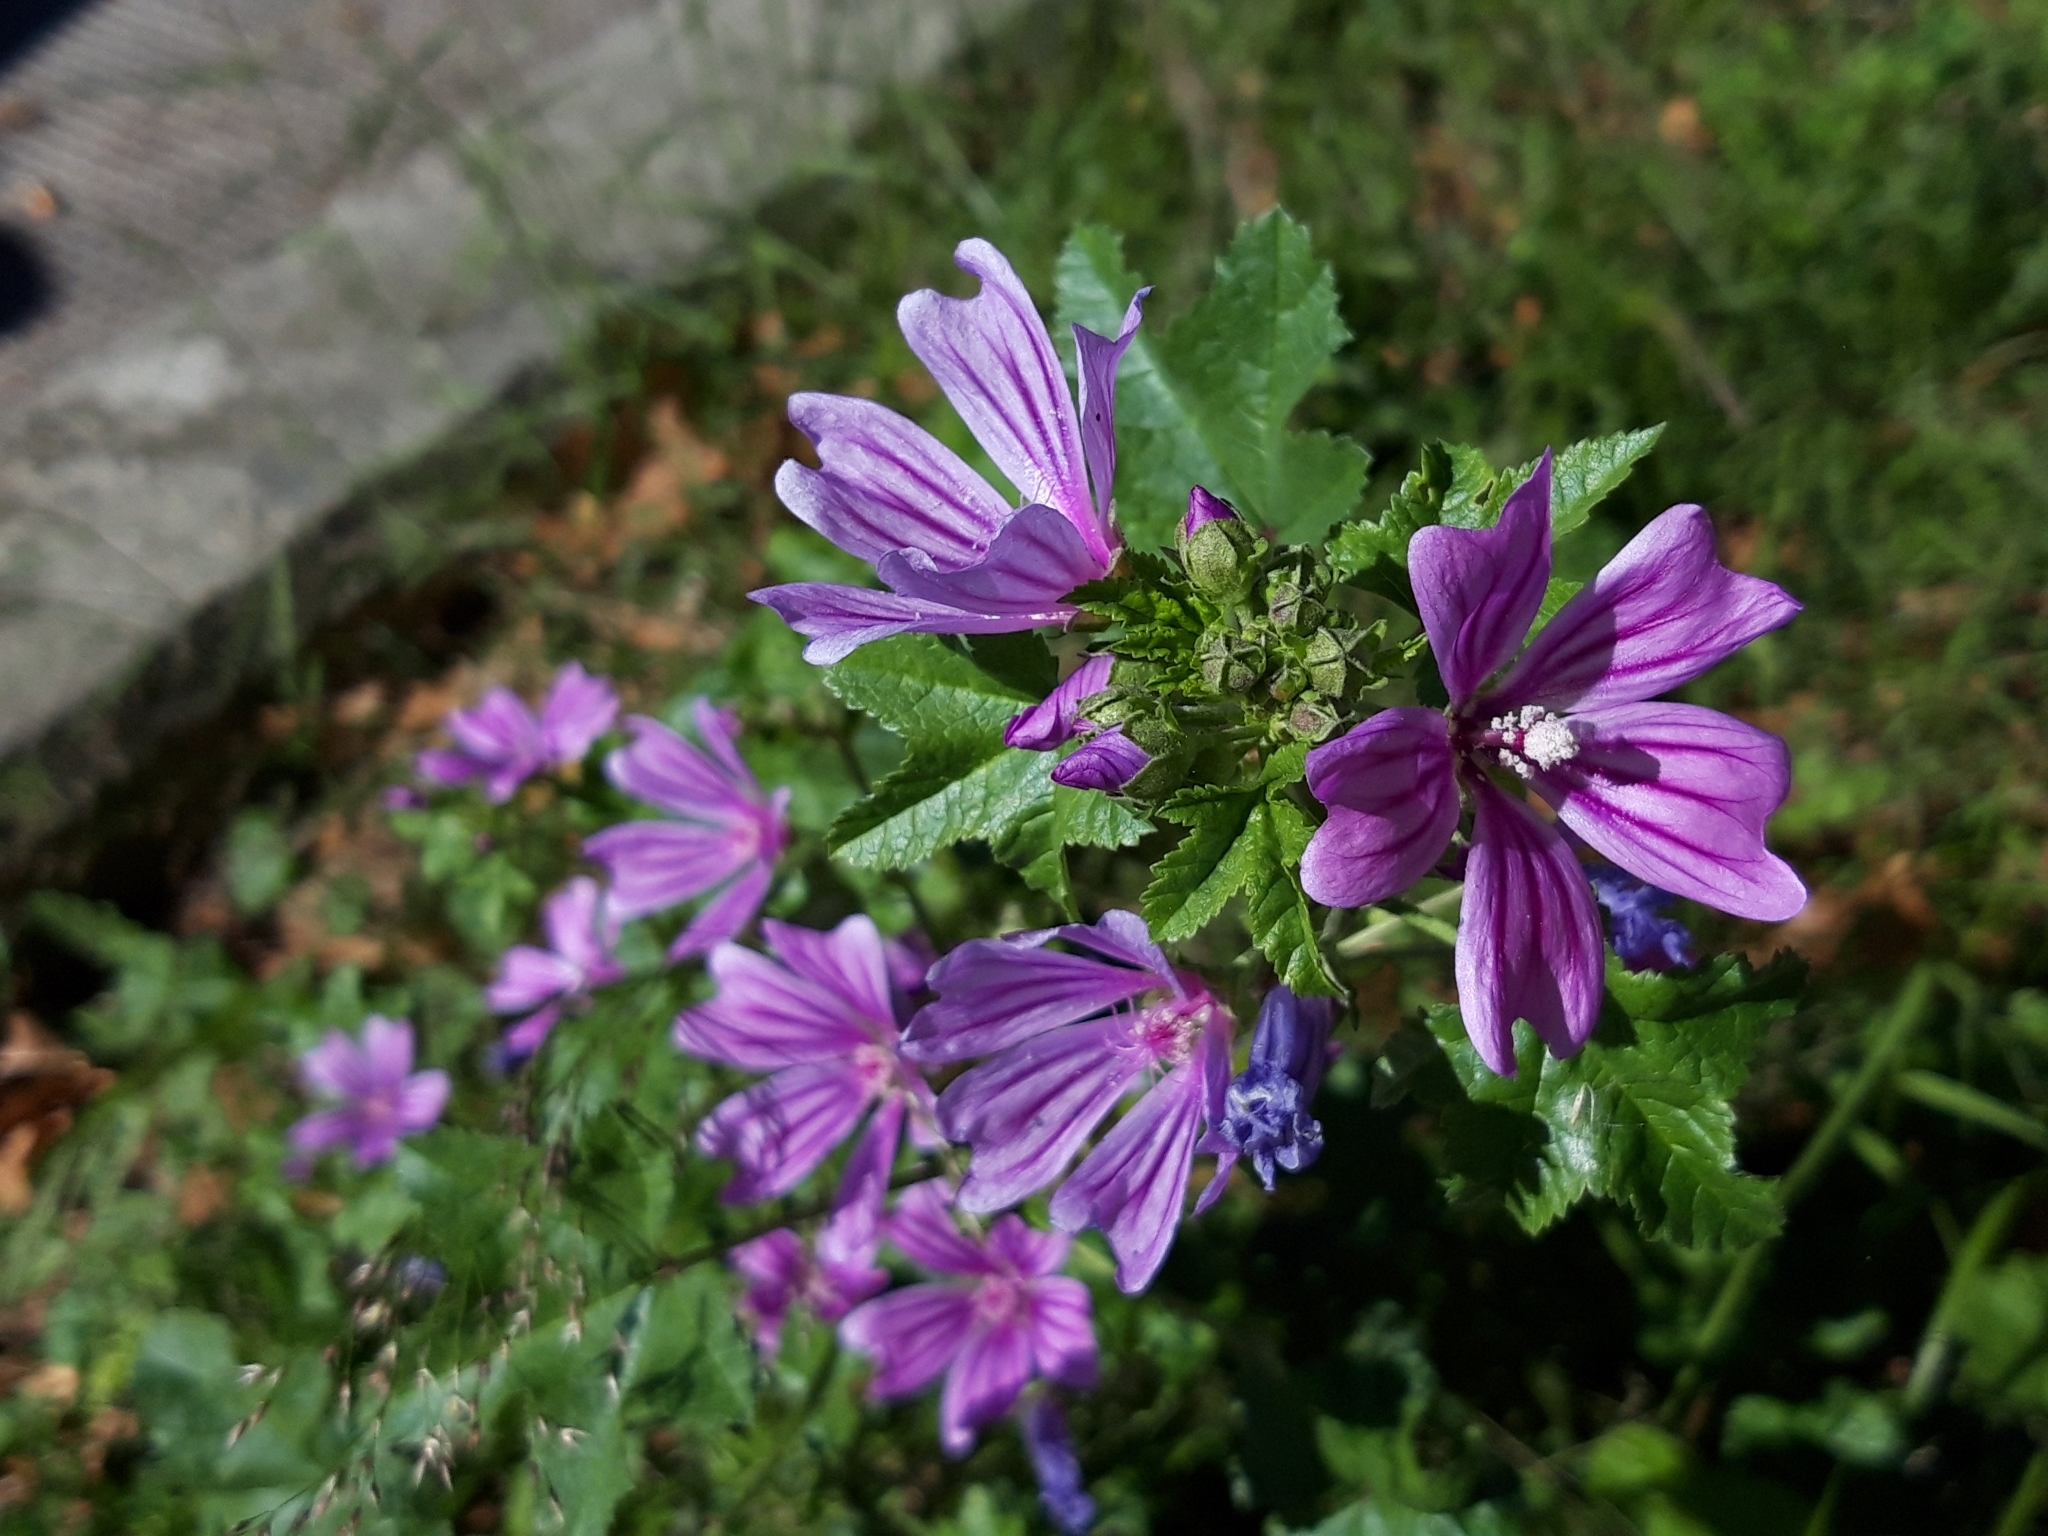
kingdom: Plantae
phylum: Tracheophyta
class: Magnoliopsida
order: Malvales
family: Malvaceae
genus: Malva
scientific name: Malva sylvestris
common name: Common mallow
